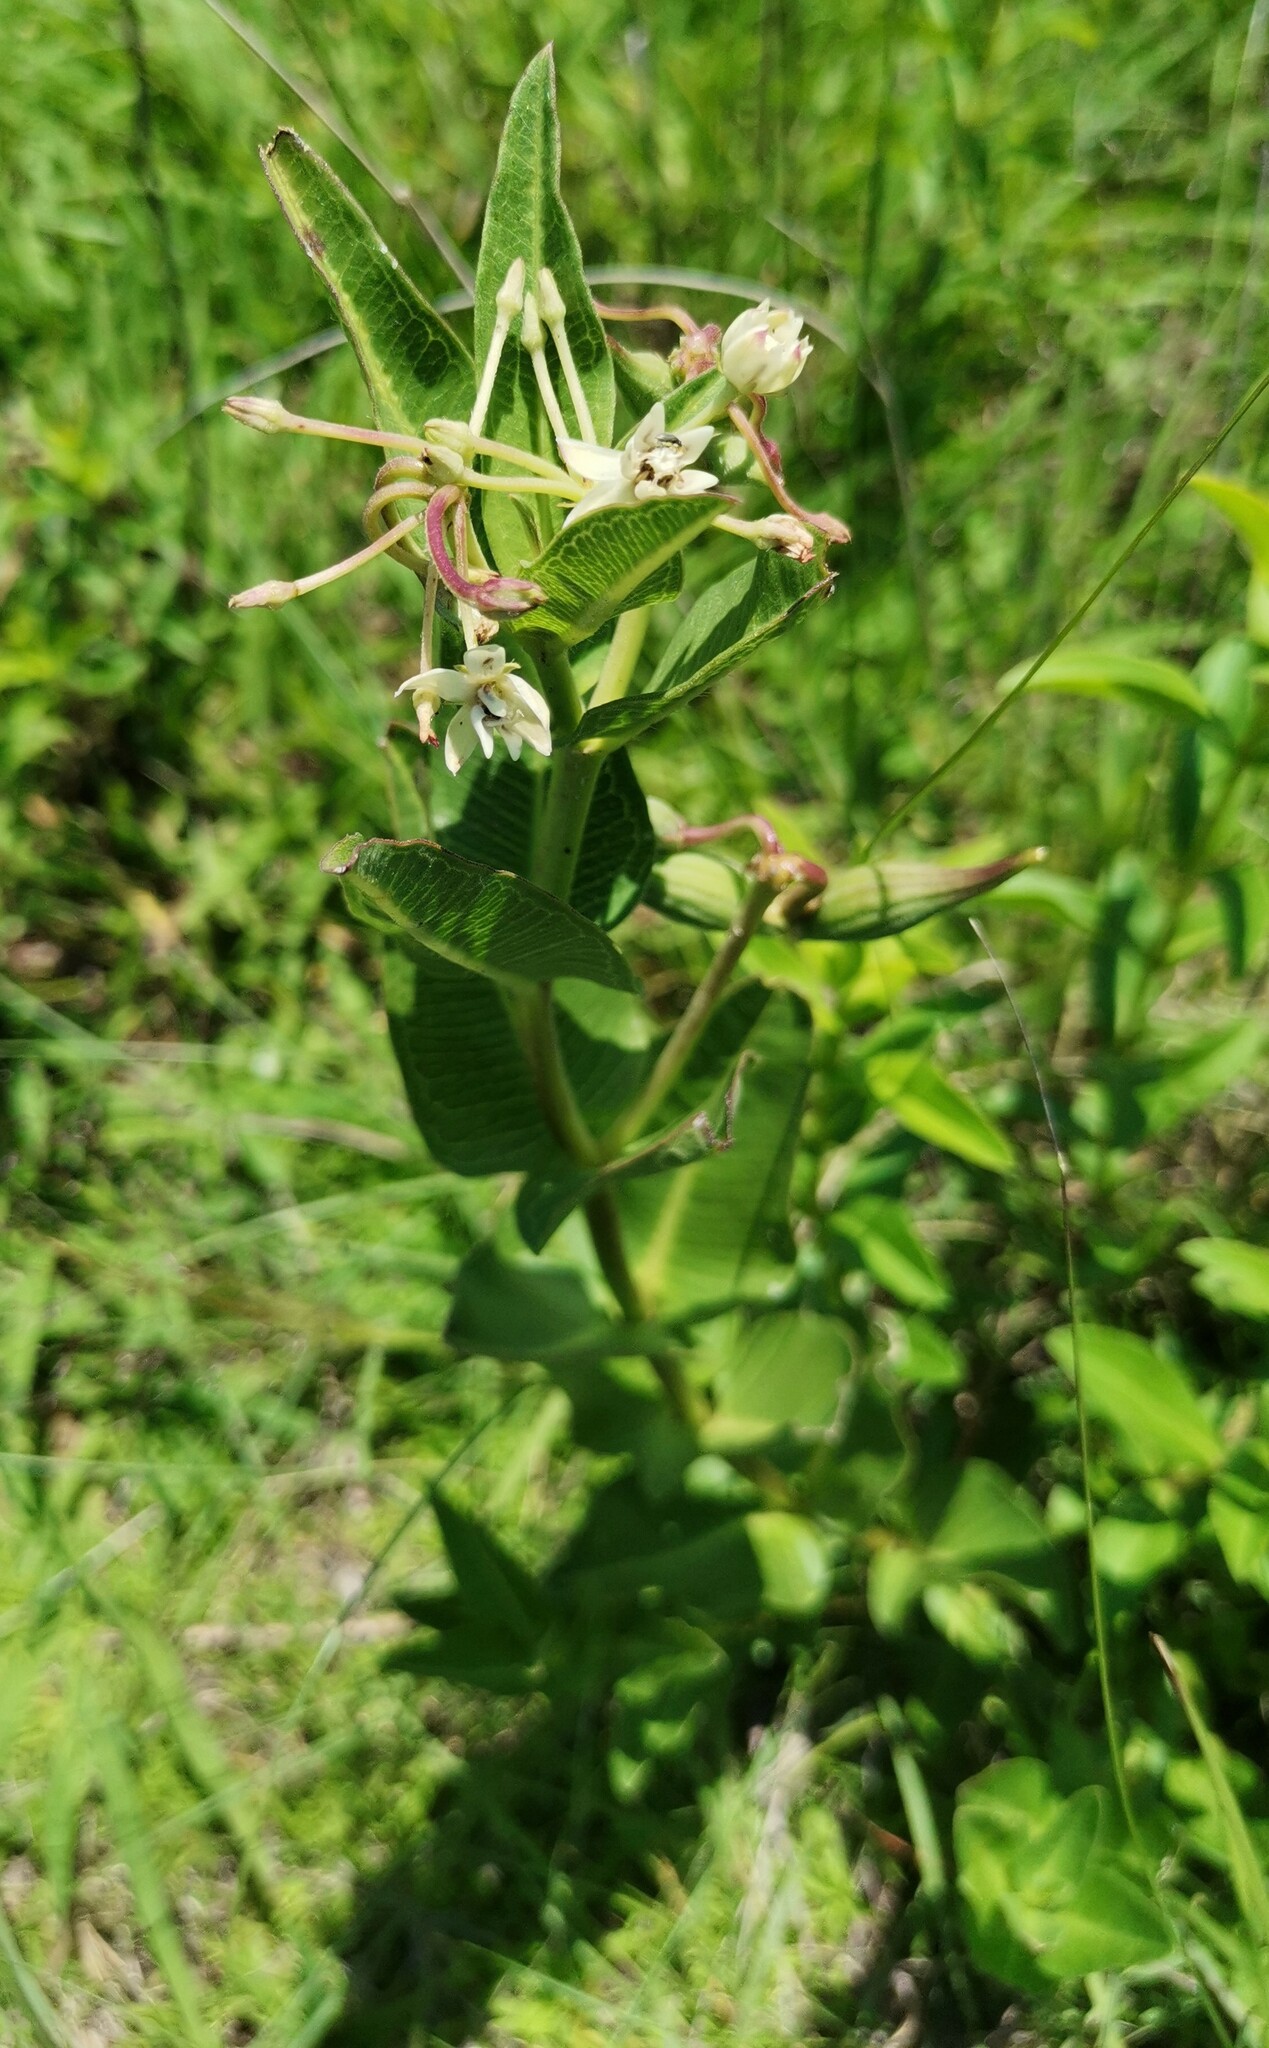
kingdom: Plantae
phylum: Tracheophyta
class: Magnoliopsida
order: Gentianales
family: Apocynaceae
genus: Asclepias
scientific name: Asclepias pratensis
